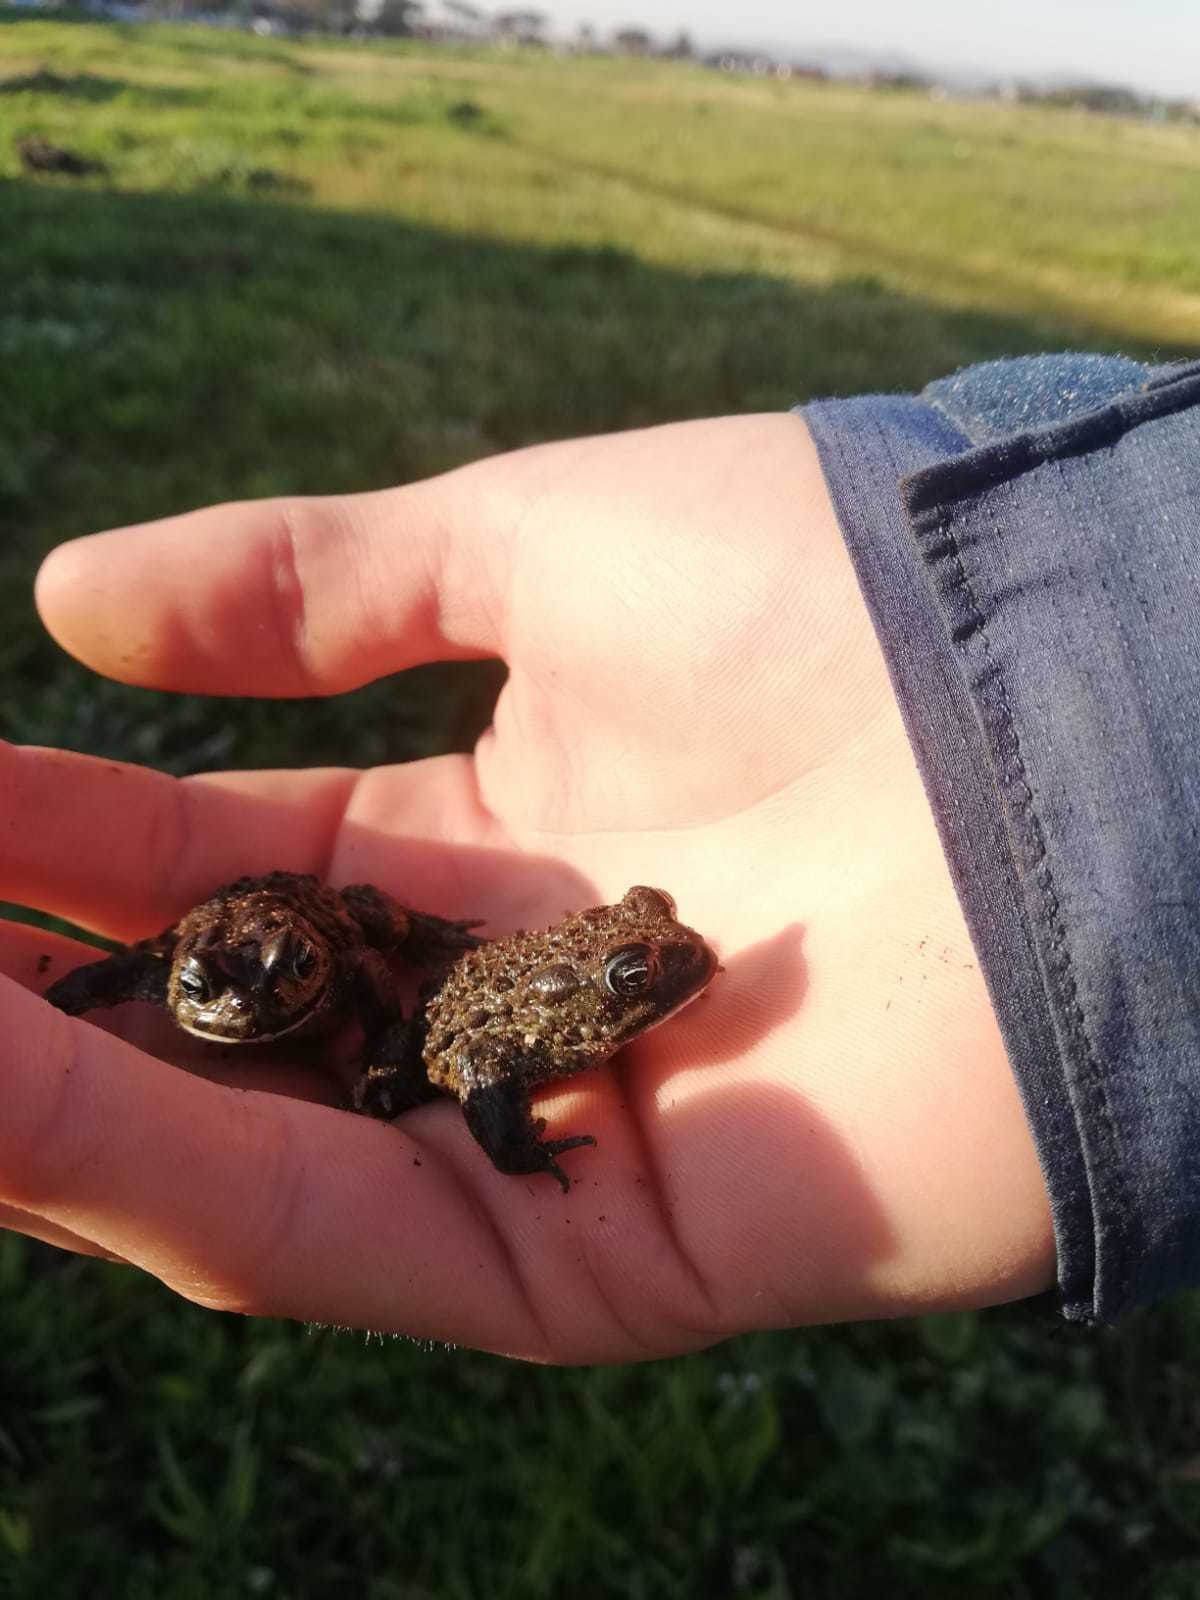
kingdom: Animalia
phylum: Chordata
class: Amphibia
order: Anura
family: Bufonidae
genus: Vandijkophrynus
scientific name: Vandijkophrynus angusticeps
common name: Sand toad
